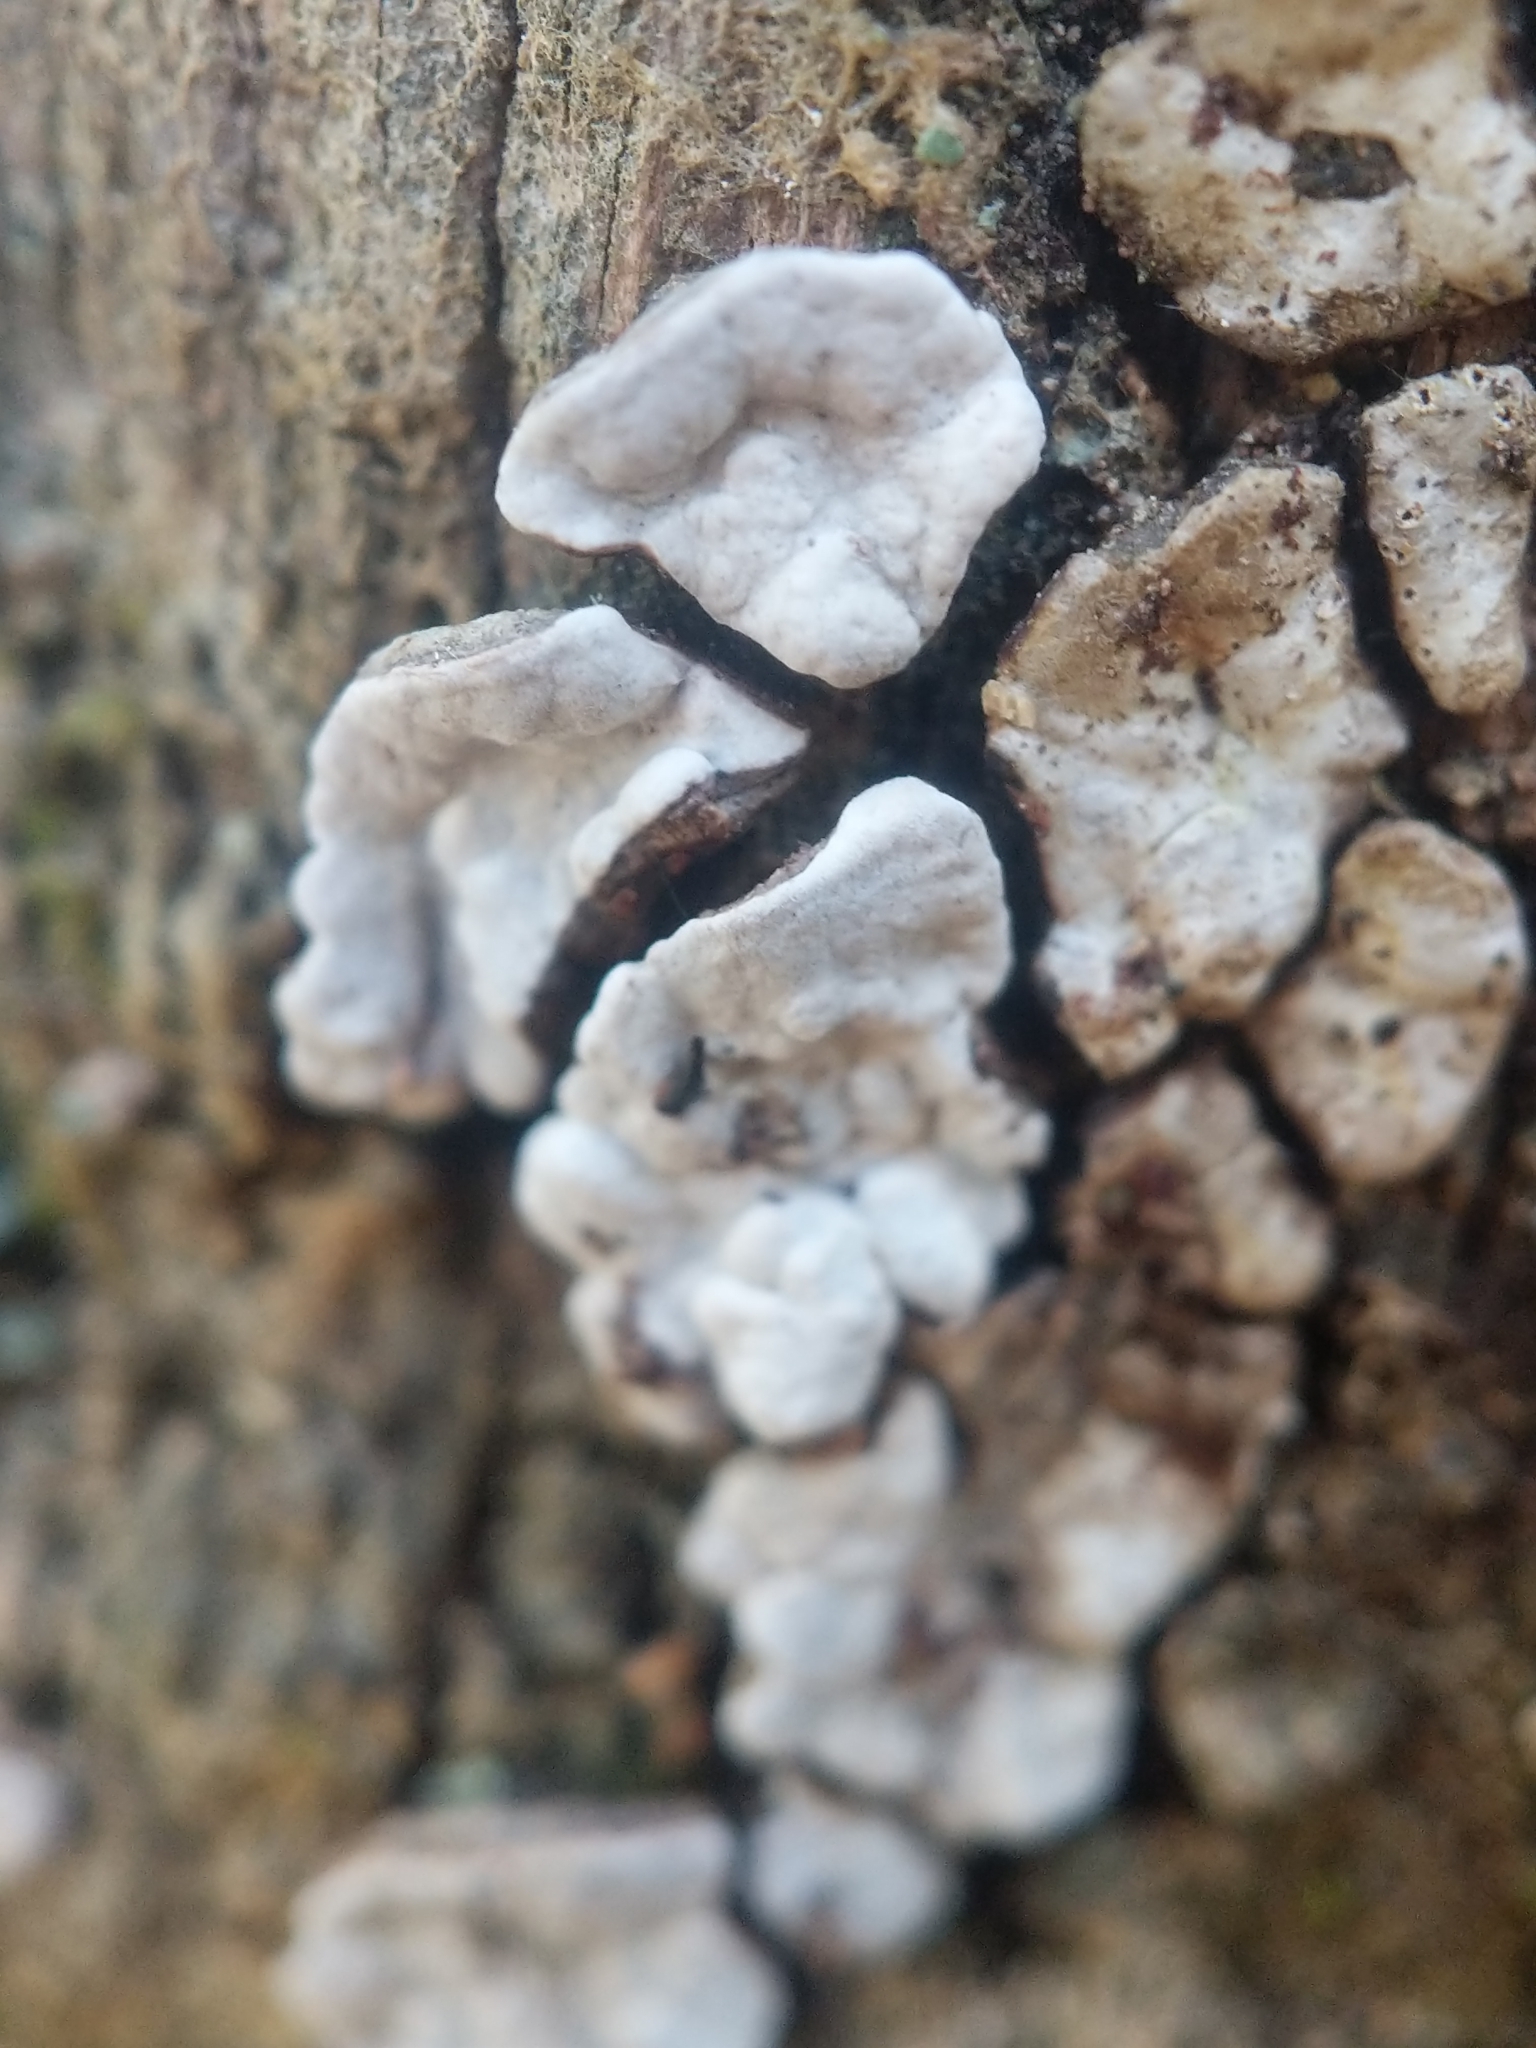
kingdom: Fungi
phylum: Basidiomycota
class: Agaricomycetes
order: Russulales
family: Stereaceae
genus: Xylobolus
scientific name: Xylobolus frustulatus
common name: Ceramic parchment
